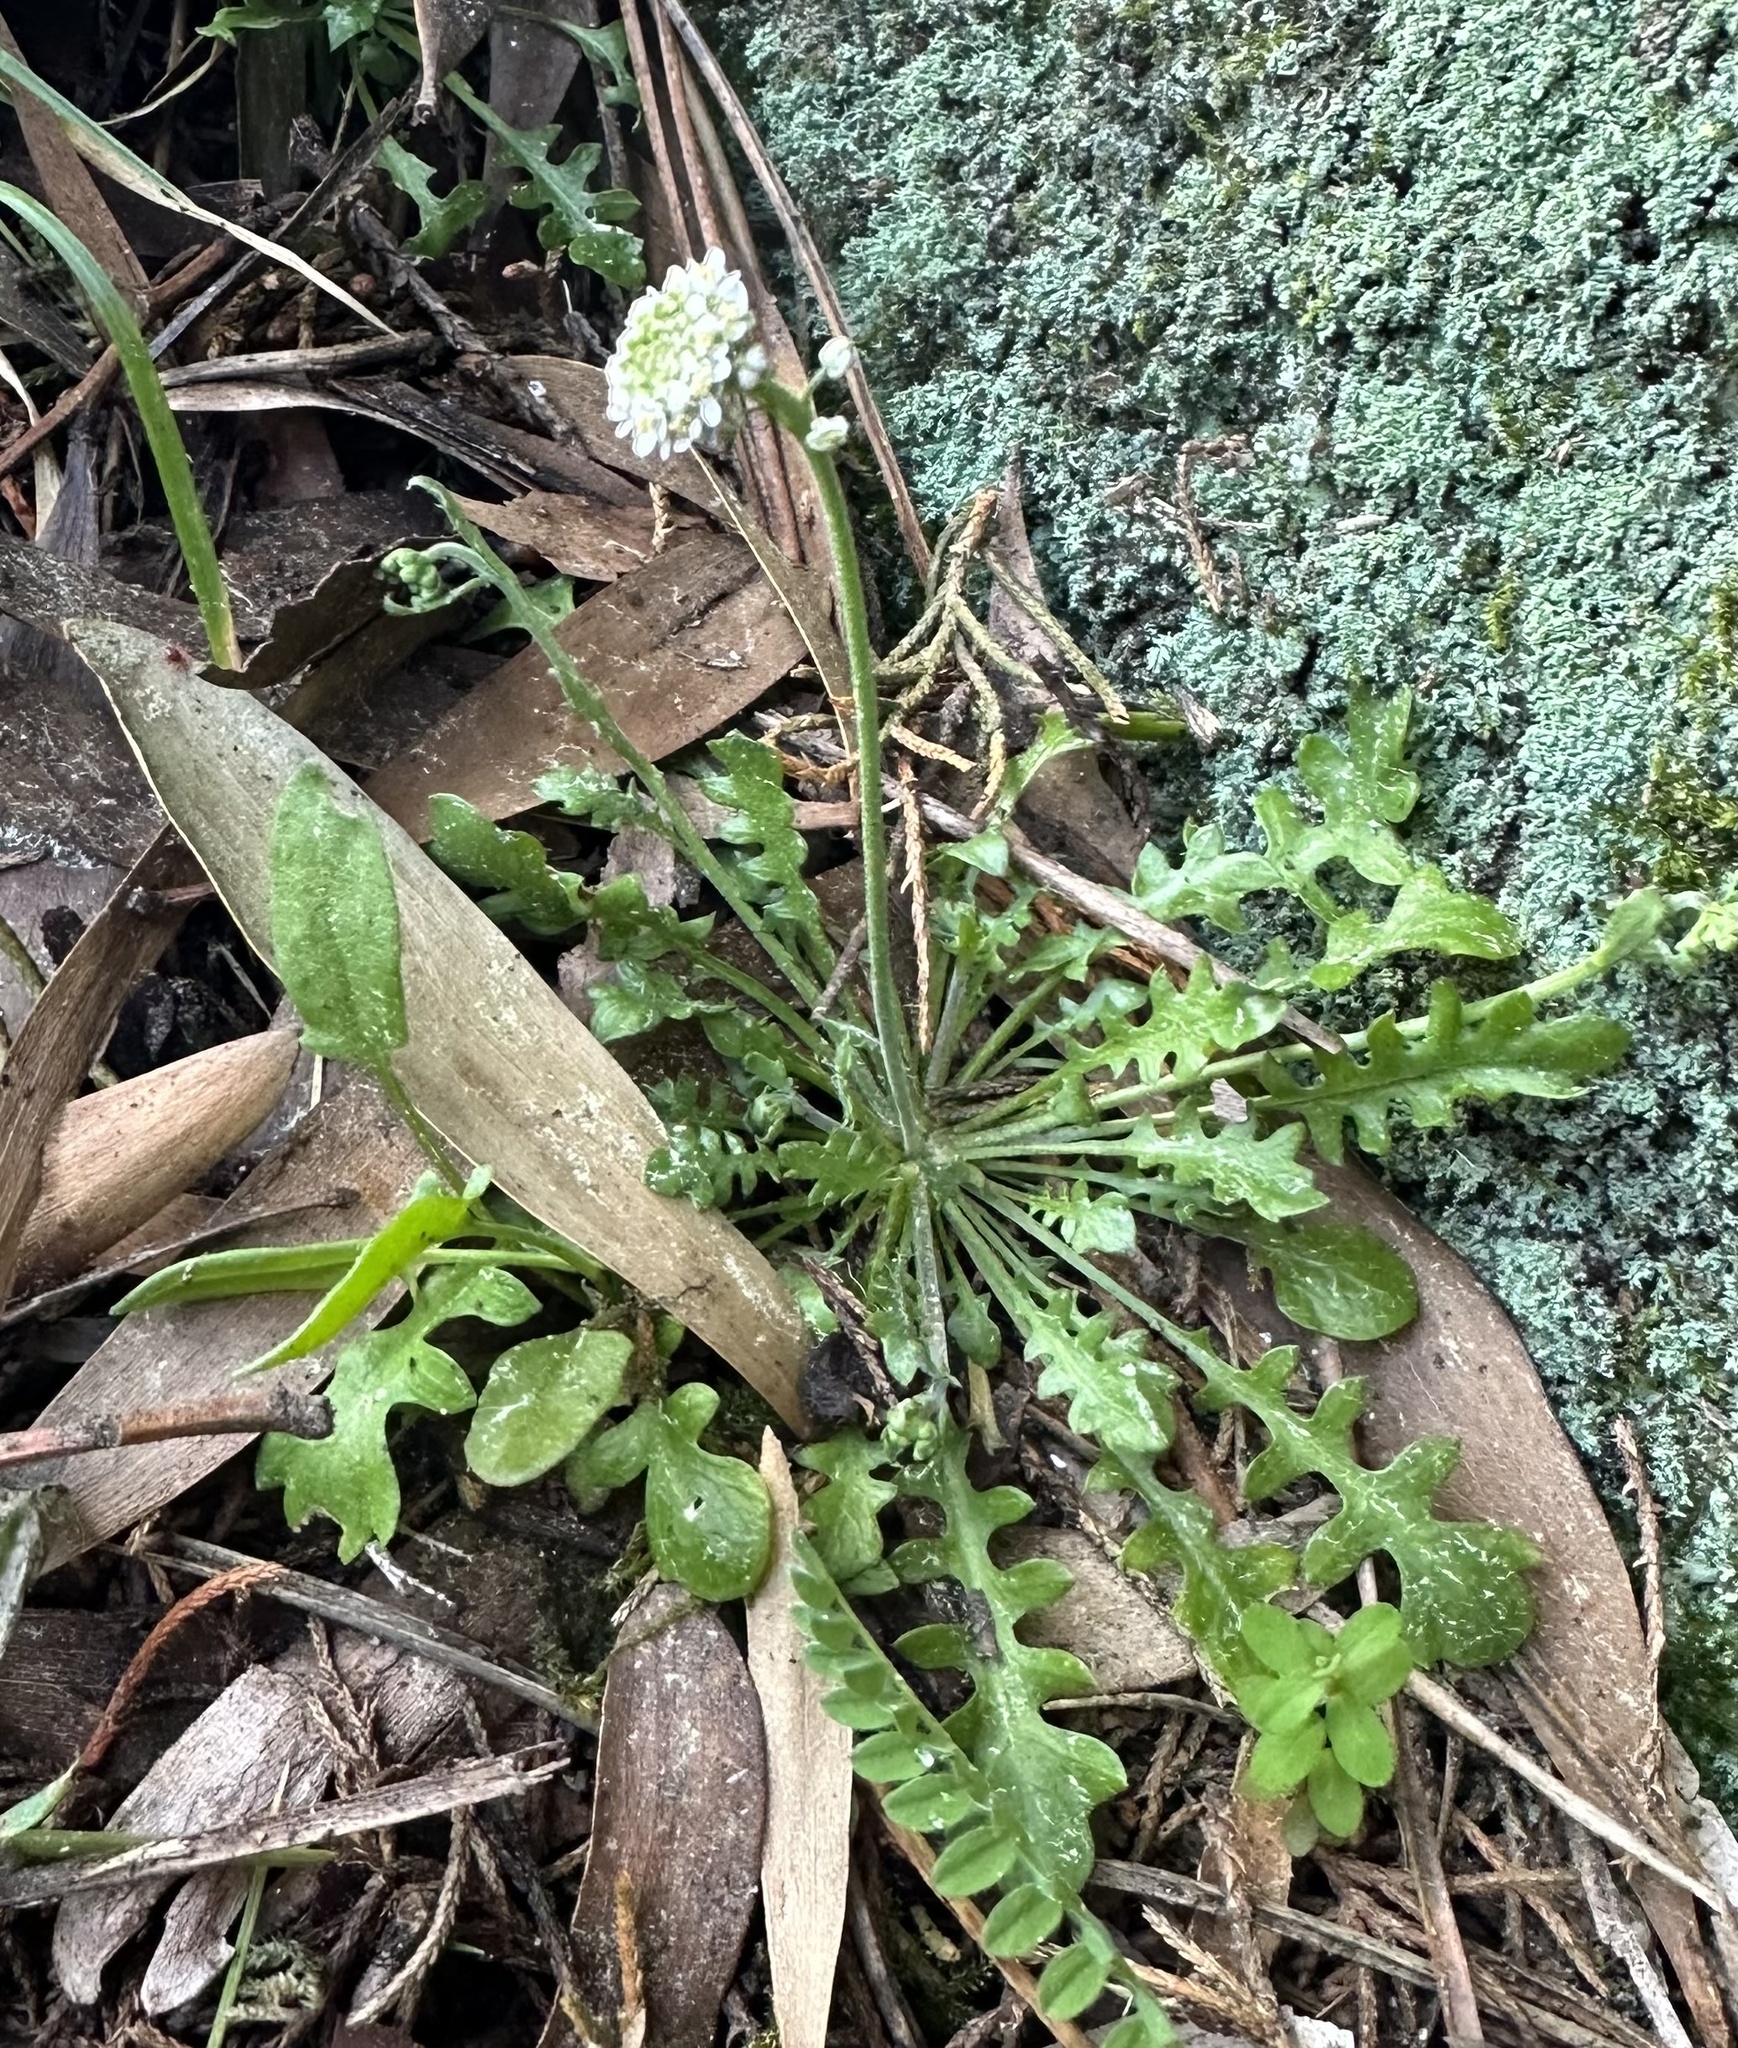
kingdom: Plantae
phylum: Tracheophyta
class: Magnoliopsida
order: Brassicales
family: Brassicaceae
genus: Teesdalia
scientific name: Teesdalia nudicaulis
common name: Shepherd's cress
